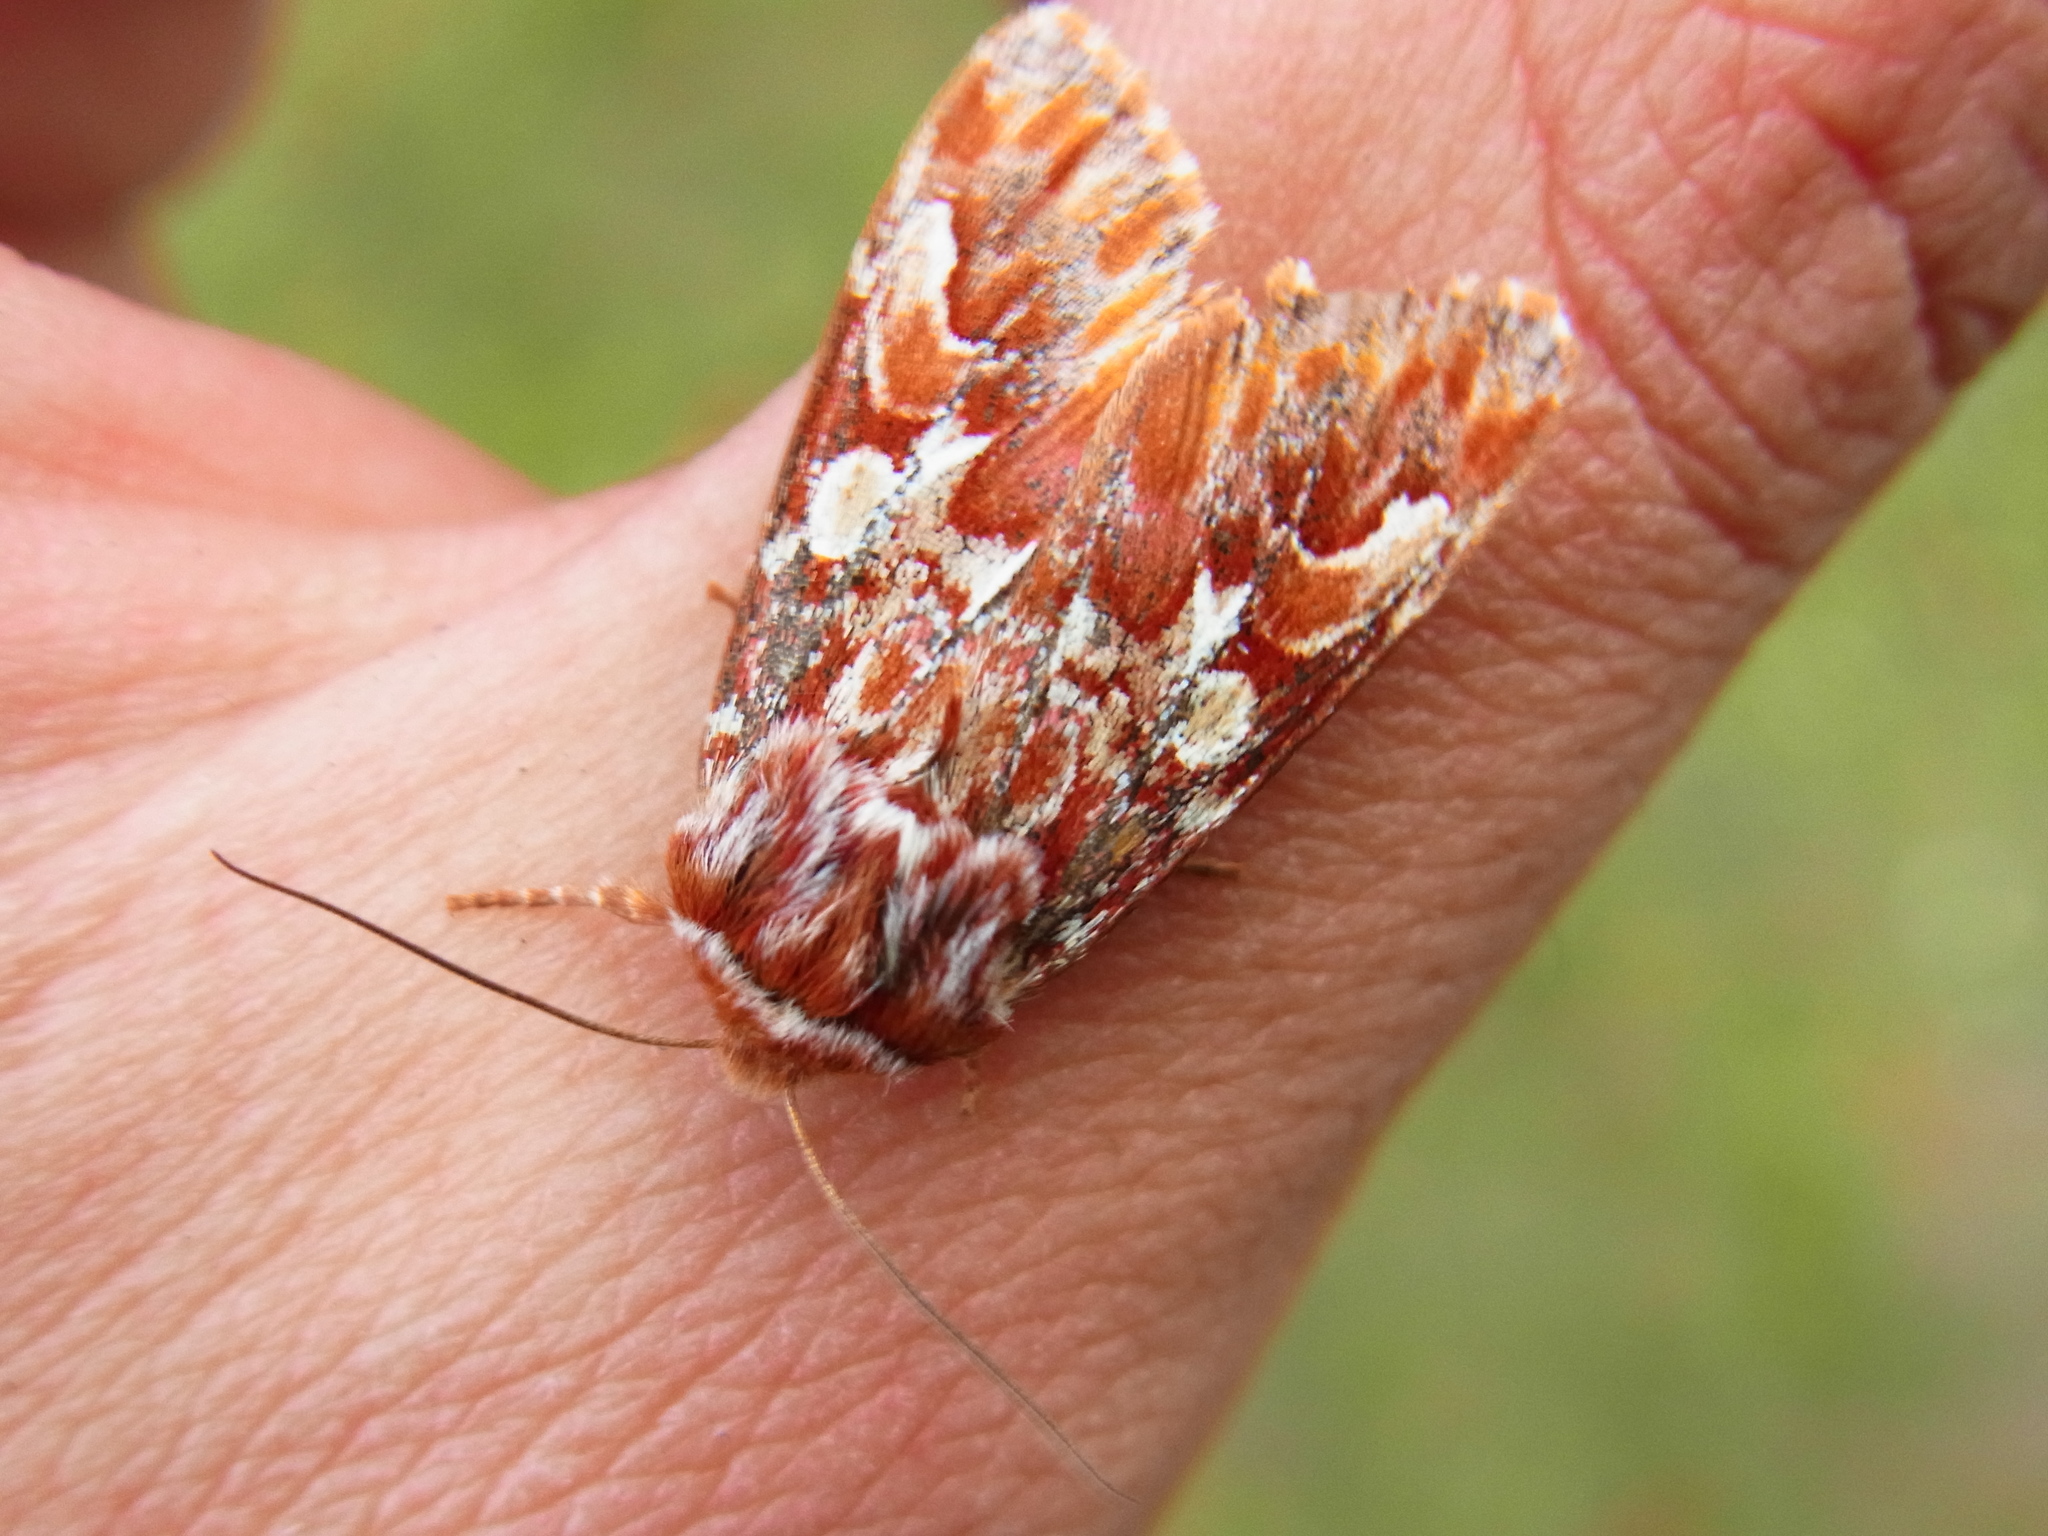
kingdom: Animalia
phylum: Arthropoda
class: Insecta
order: Lepidoptera
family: Noctuidae
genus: Panolis
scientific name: Panolis japonica
